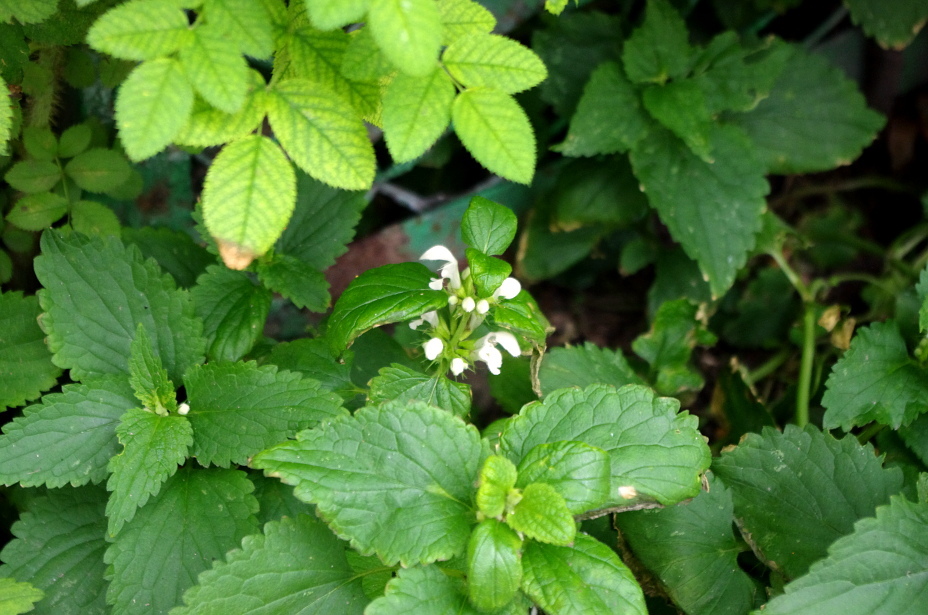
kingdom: Plantae
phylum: Tracheophyta
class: Magnoliopsida
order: Lamiales
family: Lamiaceae
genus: Lamium
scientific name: Lamium album
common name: White dead-nettle
